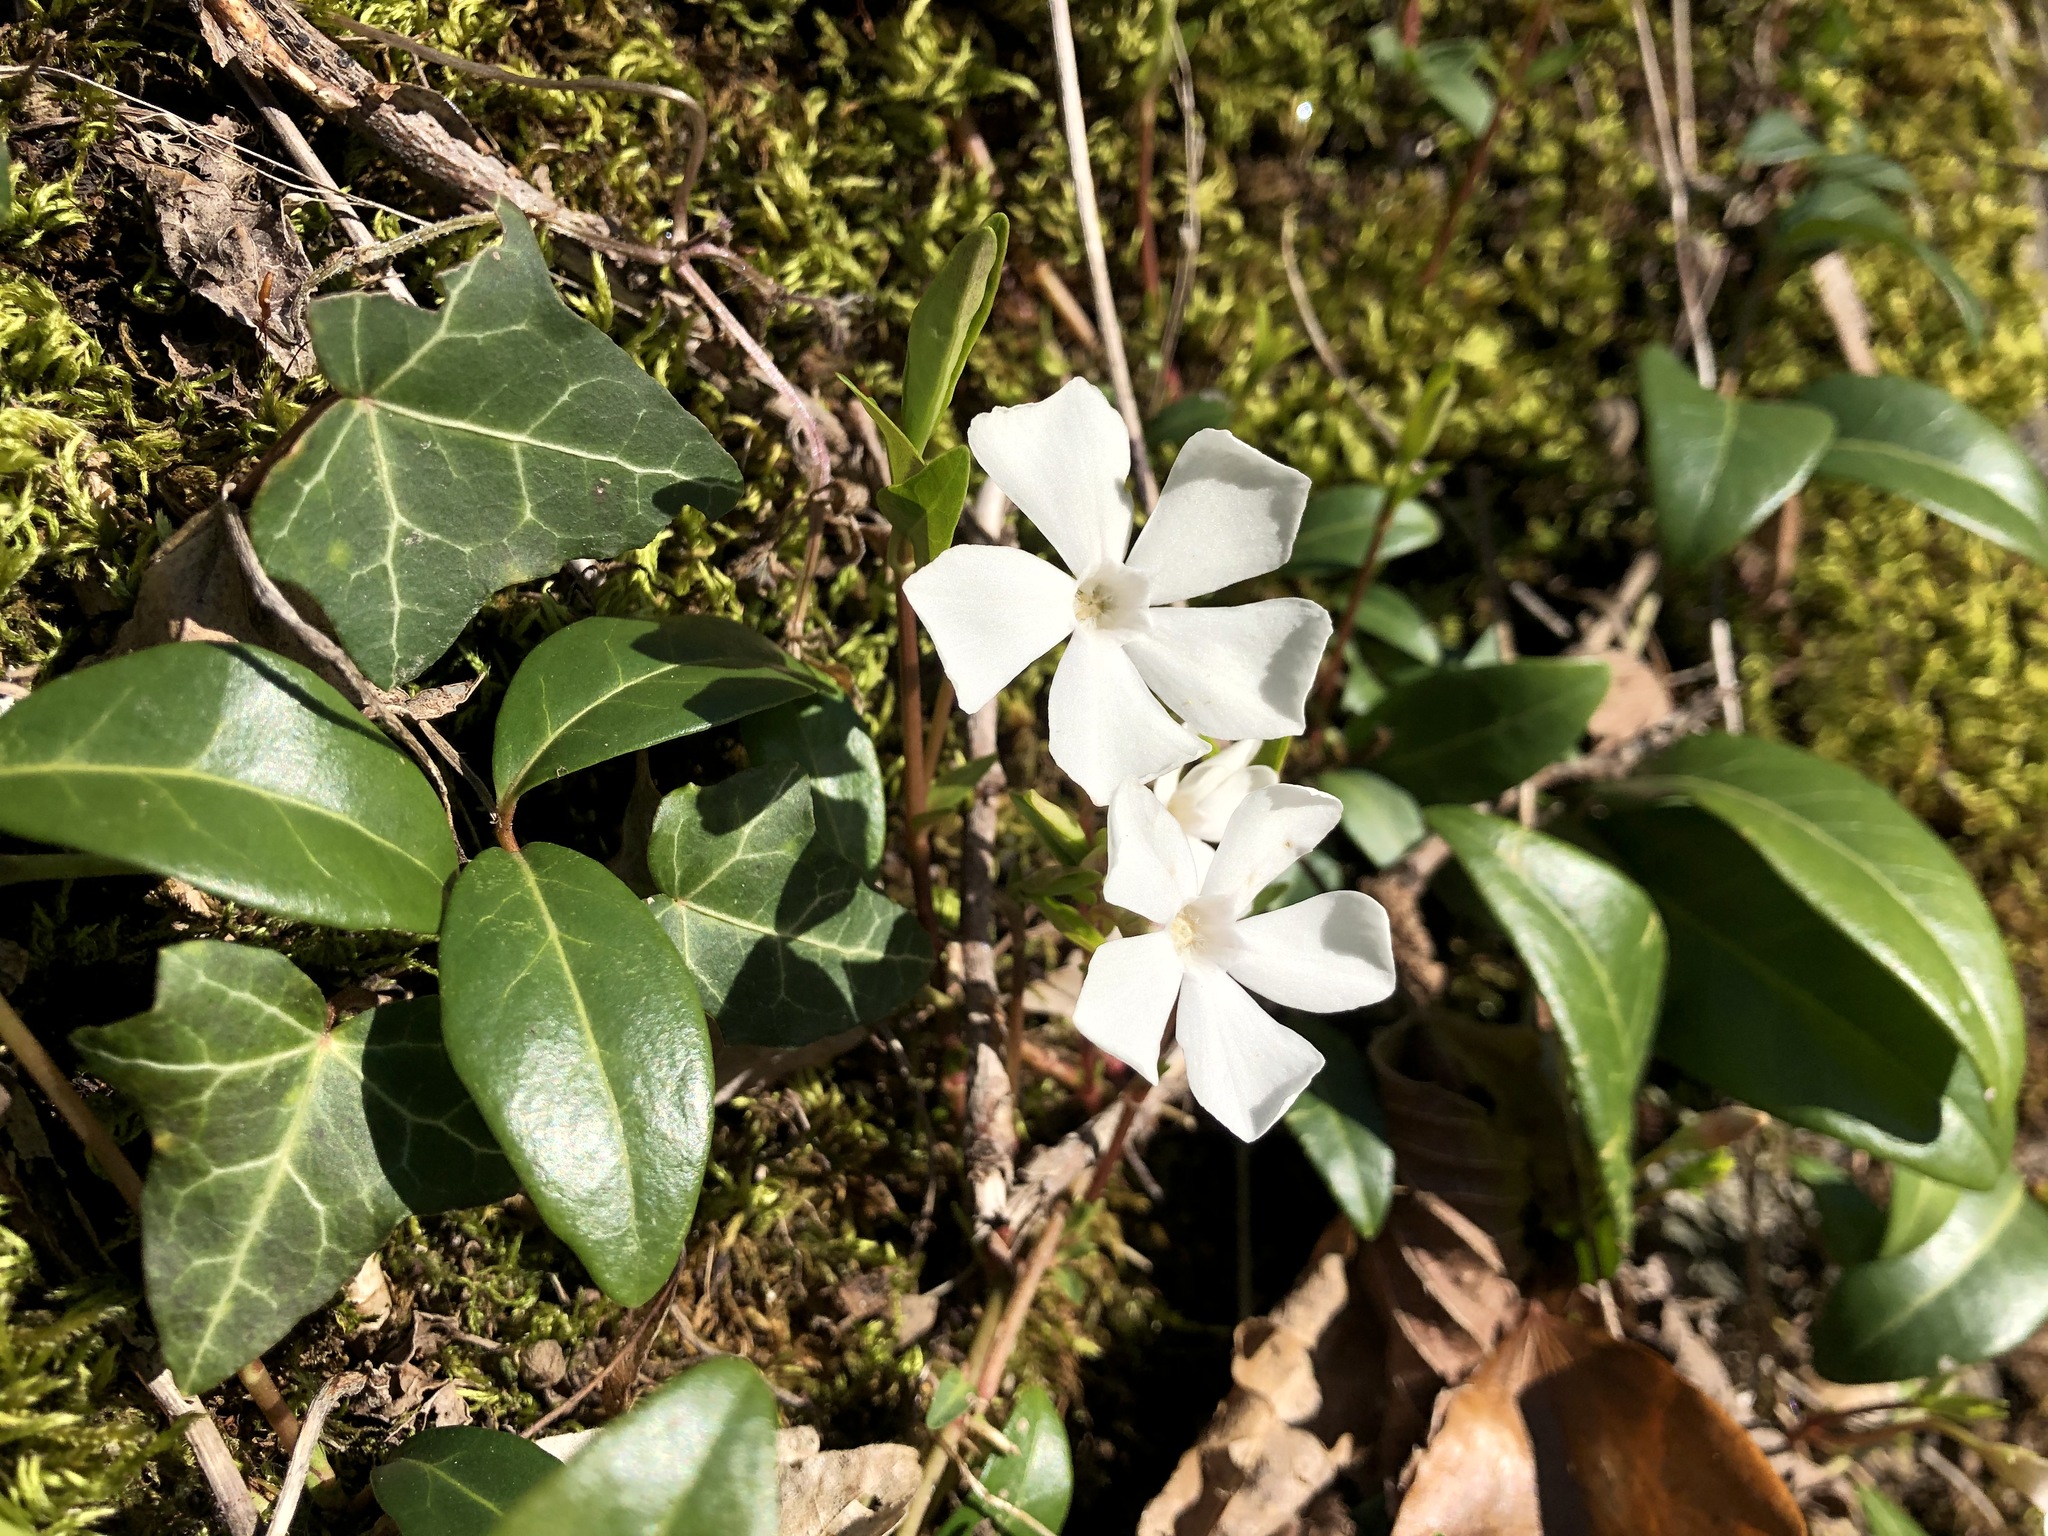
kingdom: Plantae
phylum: Tracheophyta
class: Magnoliopsida
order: Gentianales
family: Apocynaceae
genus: Vinca
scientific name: Vinca minor
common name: Lesser periwinkle
